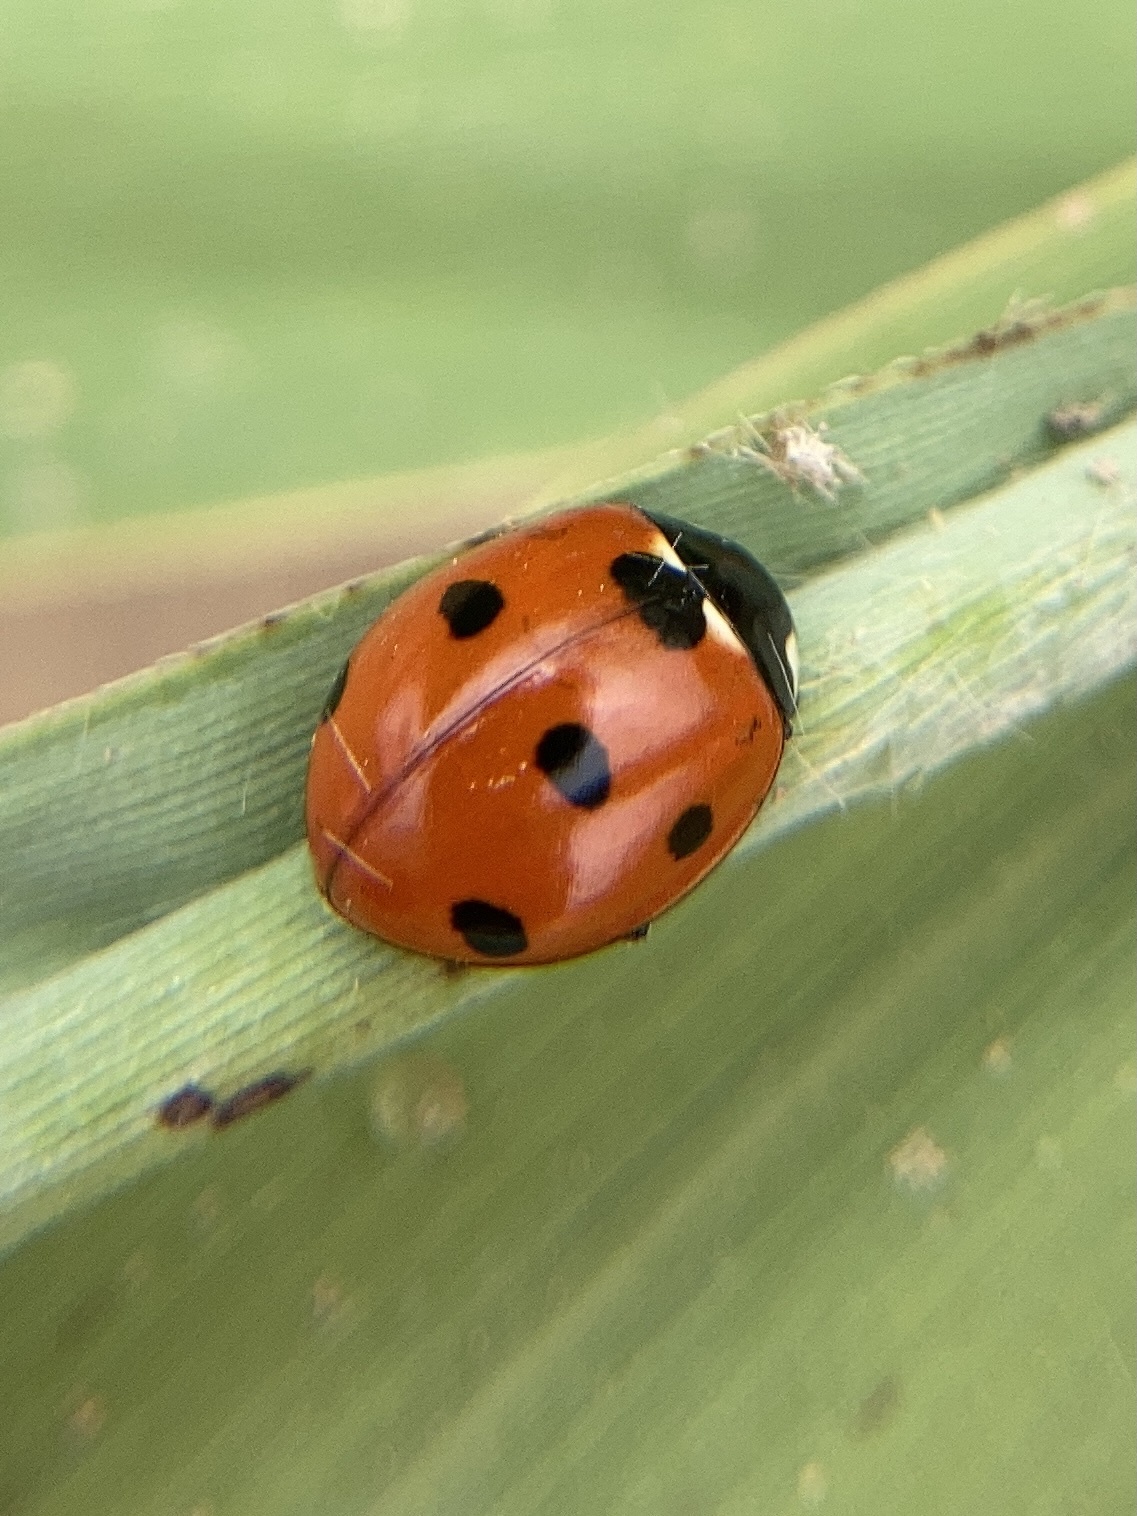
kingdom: Animalia
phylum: Arthropoda
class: Insecta
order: Coleoptera
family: Coccinellidae
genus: Coccinella
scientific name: Coccinella septempunctata
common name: Sevenspotted lady beetle
